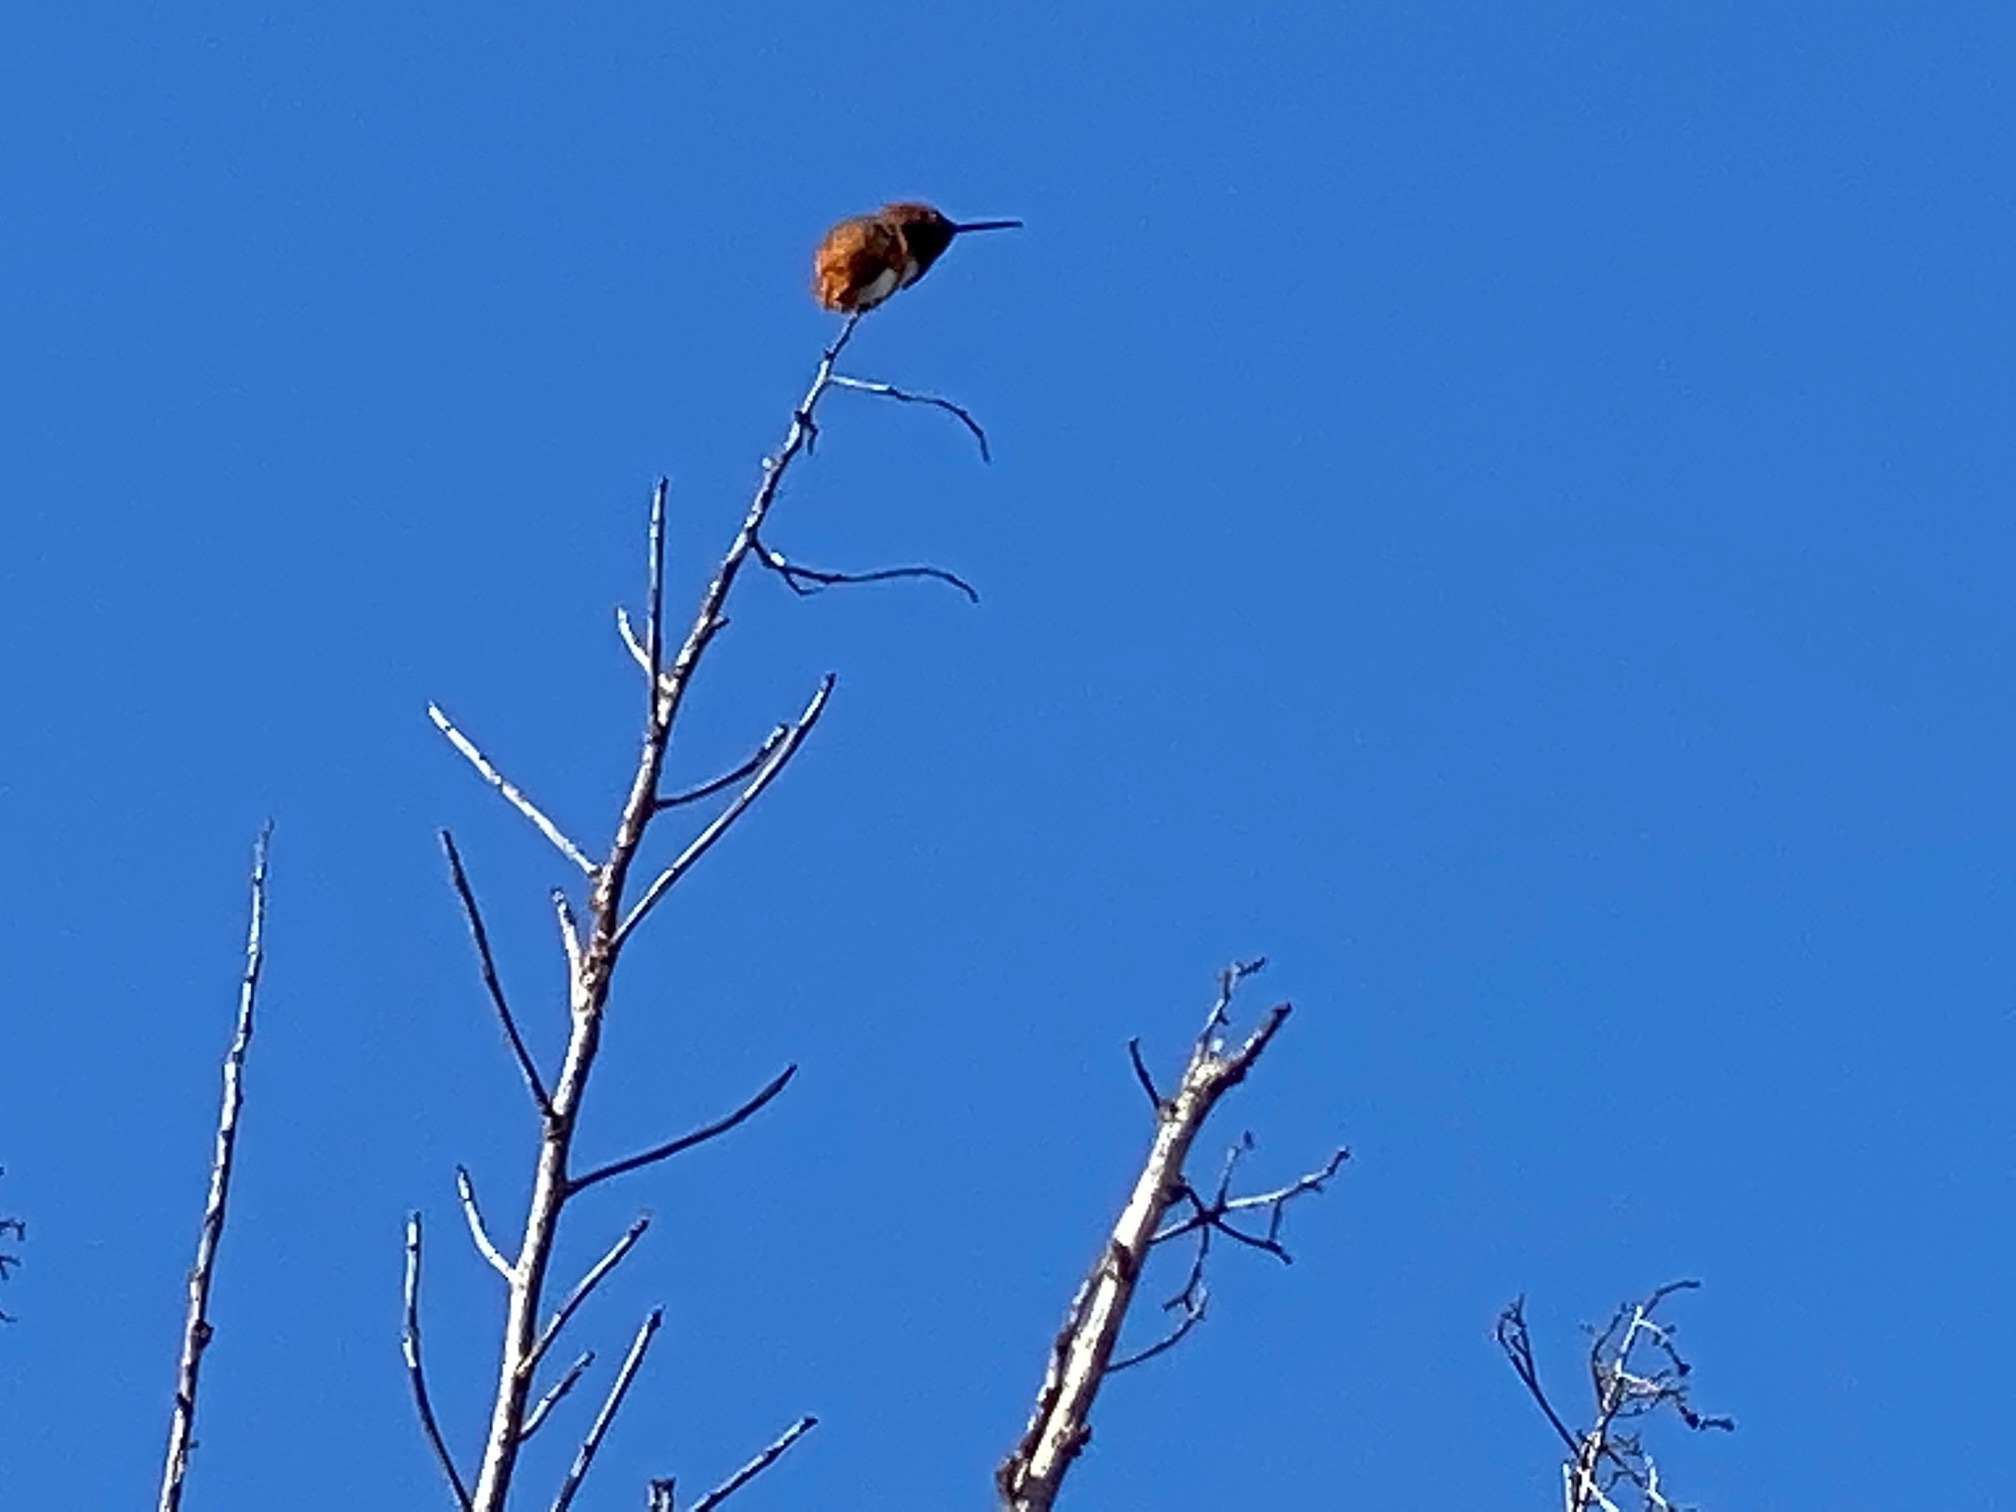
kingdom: Animalia
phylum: Chordata
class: Aves
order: Apodiformes
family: Trochilidae
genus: Selasphorus
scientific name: Selasphorus sasin
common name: Allen's hummingbird
